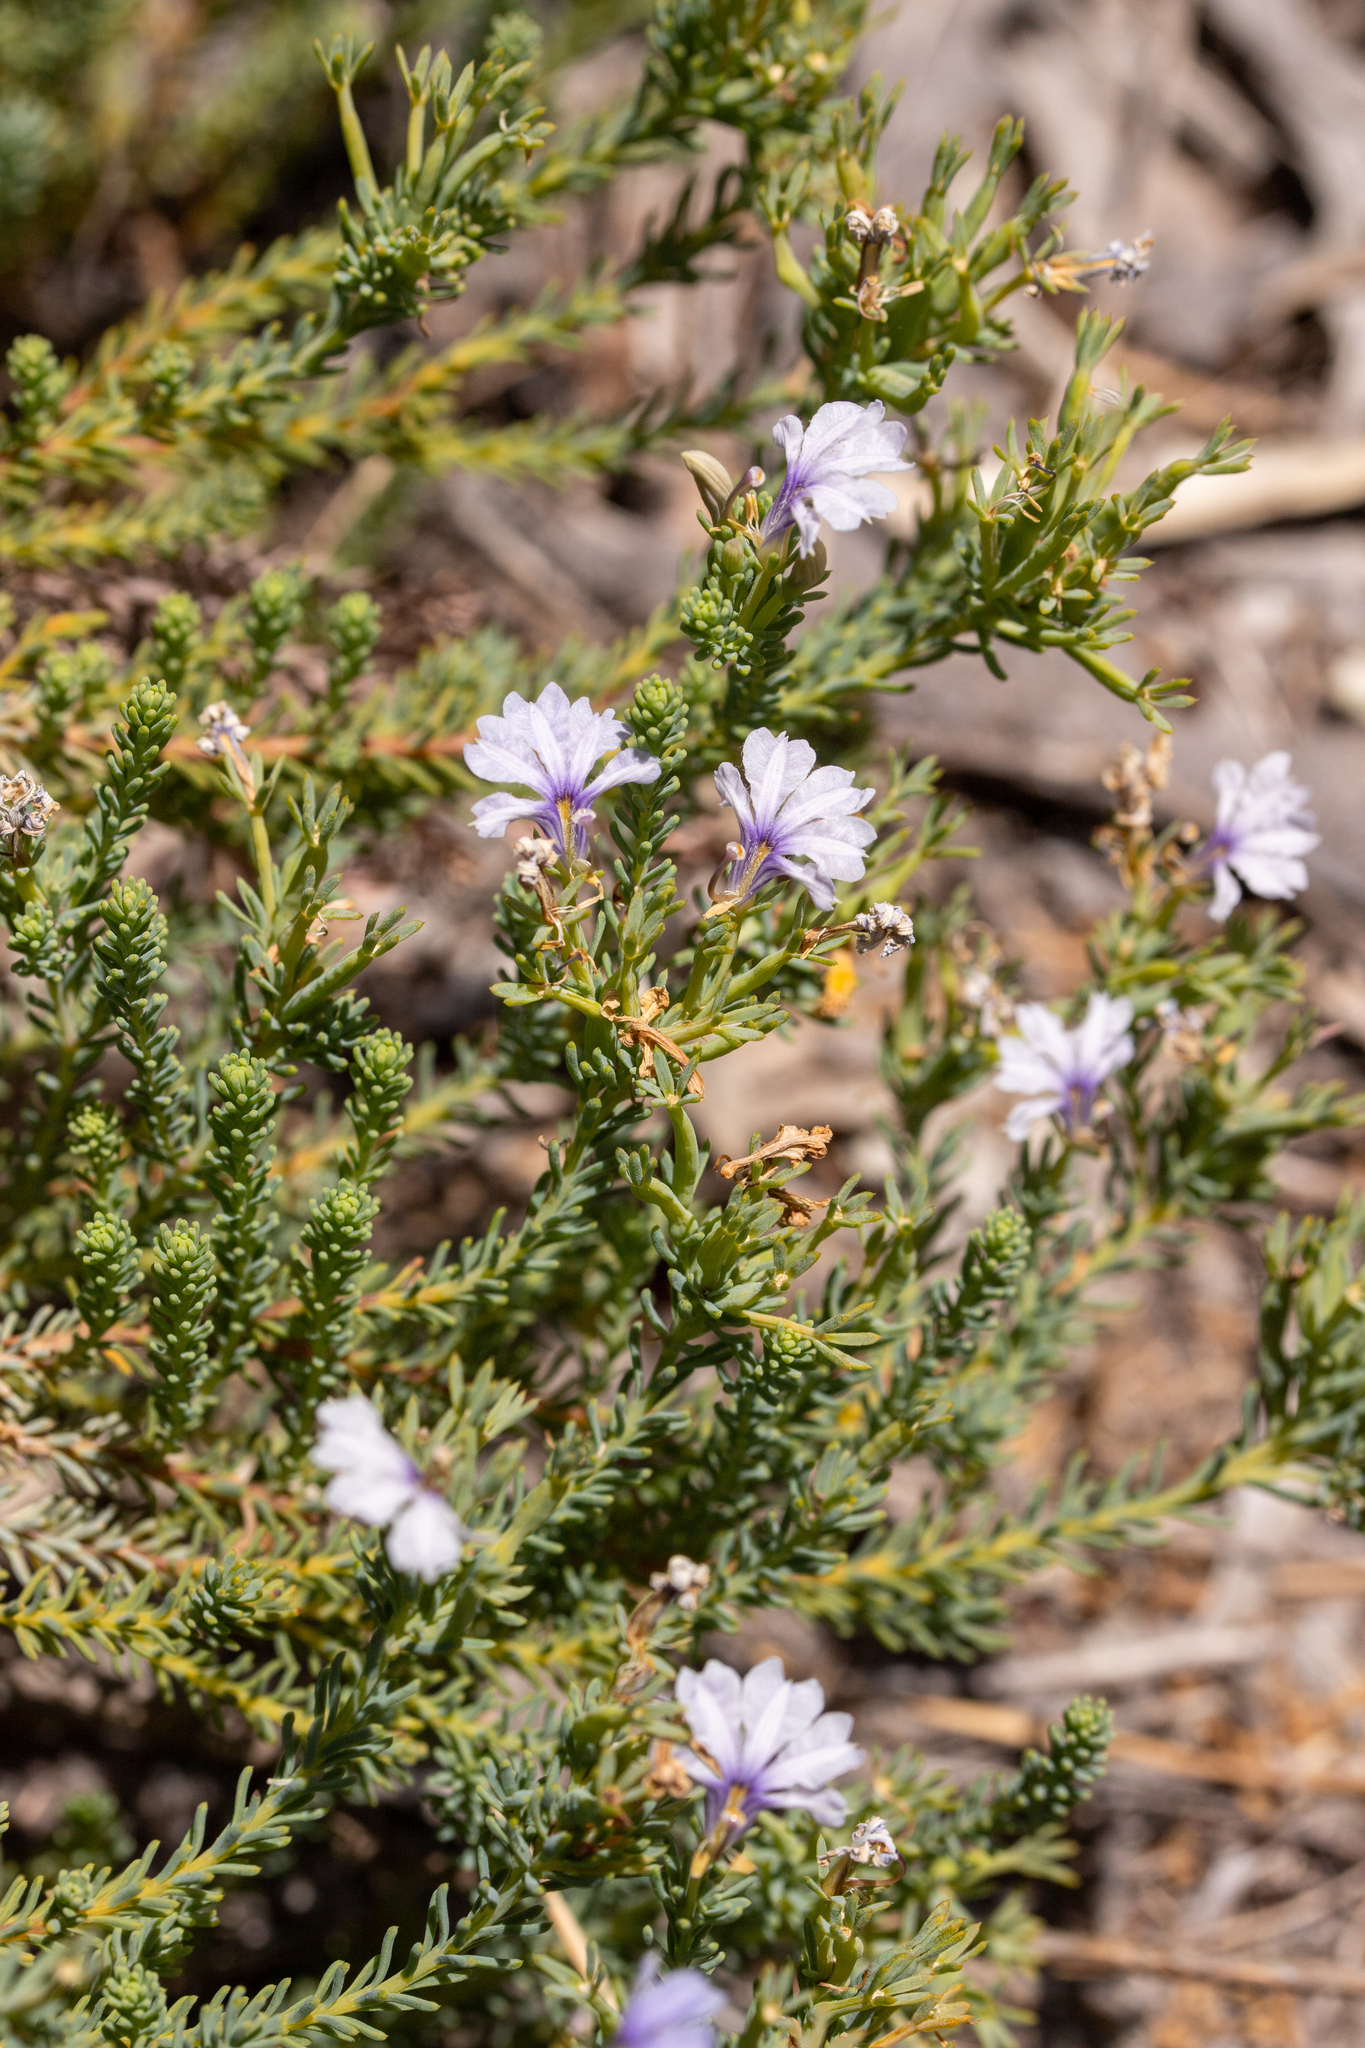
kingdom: Plantae
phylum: Tracheophyta
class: Magnoliopsida
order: Asterales
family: Goodeniaceae
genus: Lechenaultia
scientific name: Lechenaultia floribunda
